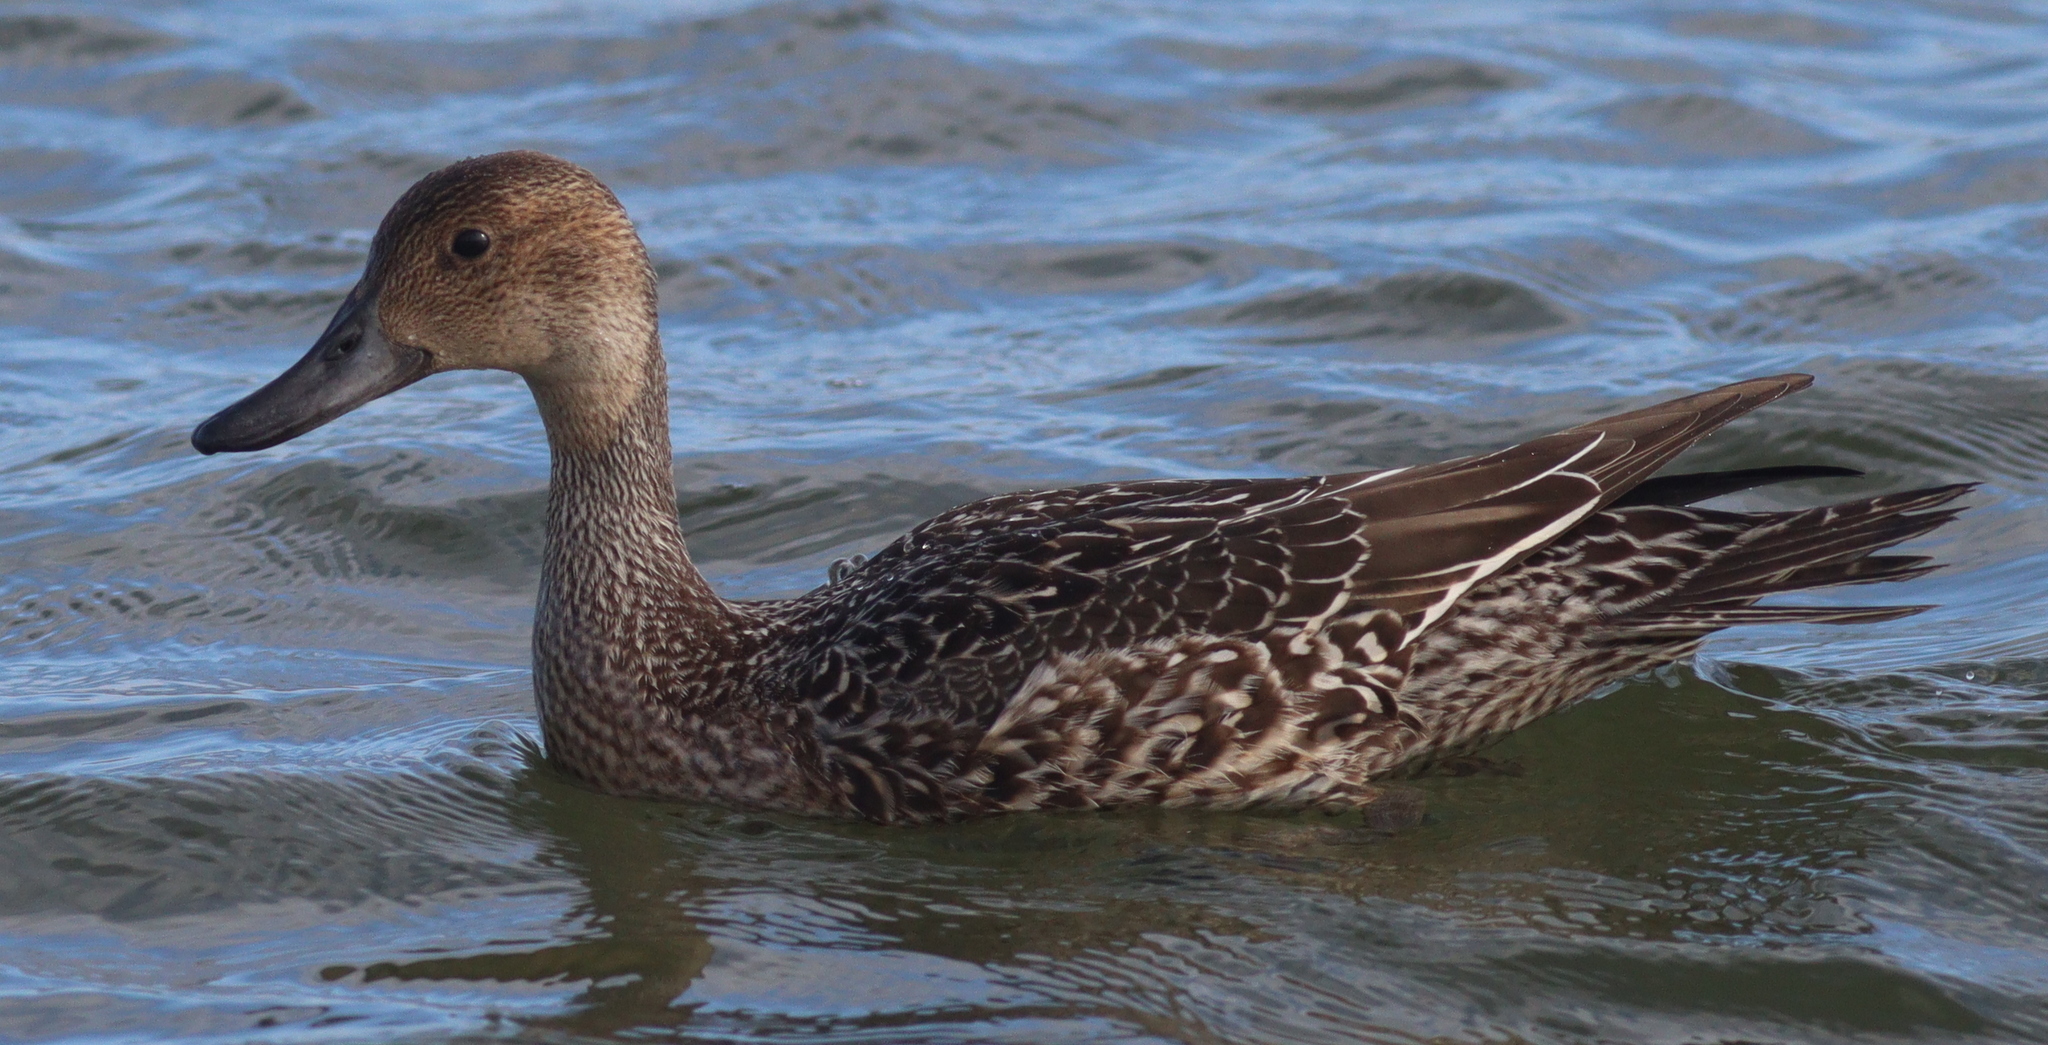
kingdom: Animalia
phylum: Chordata
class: Aves
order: Anseriformes
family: Anatidae
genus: Anas
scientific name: Anas acuta
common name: Northern pintail
